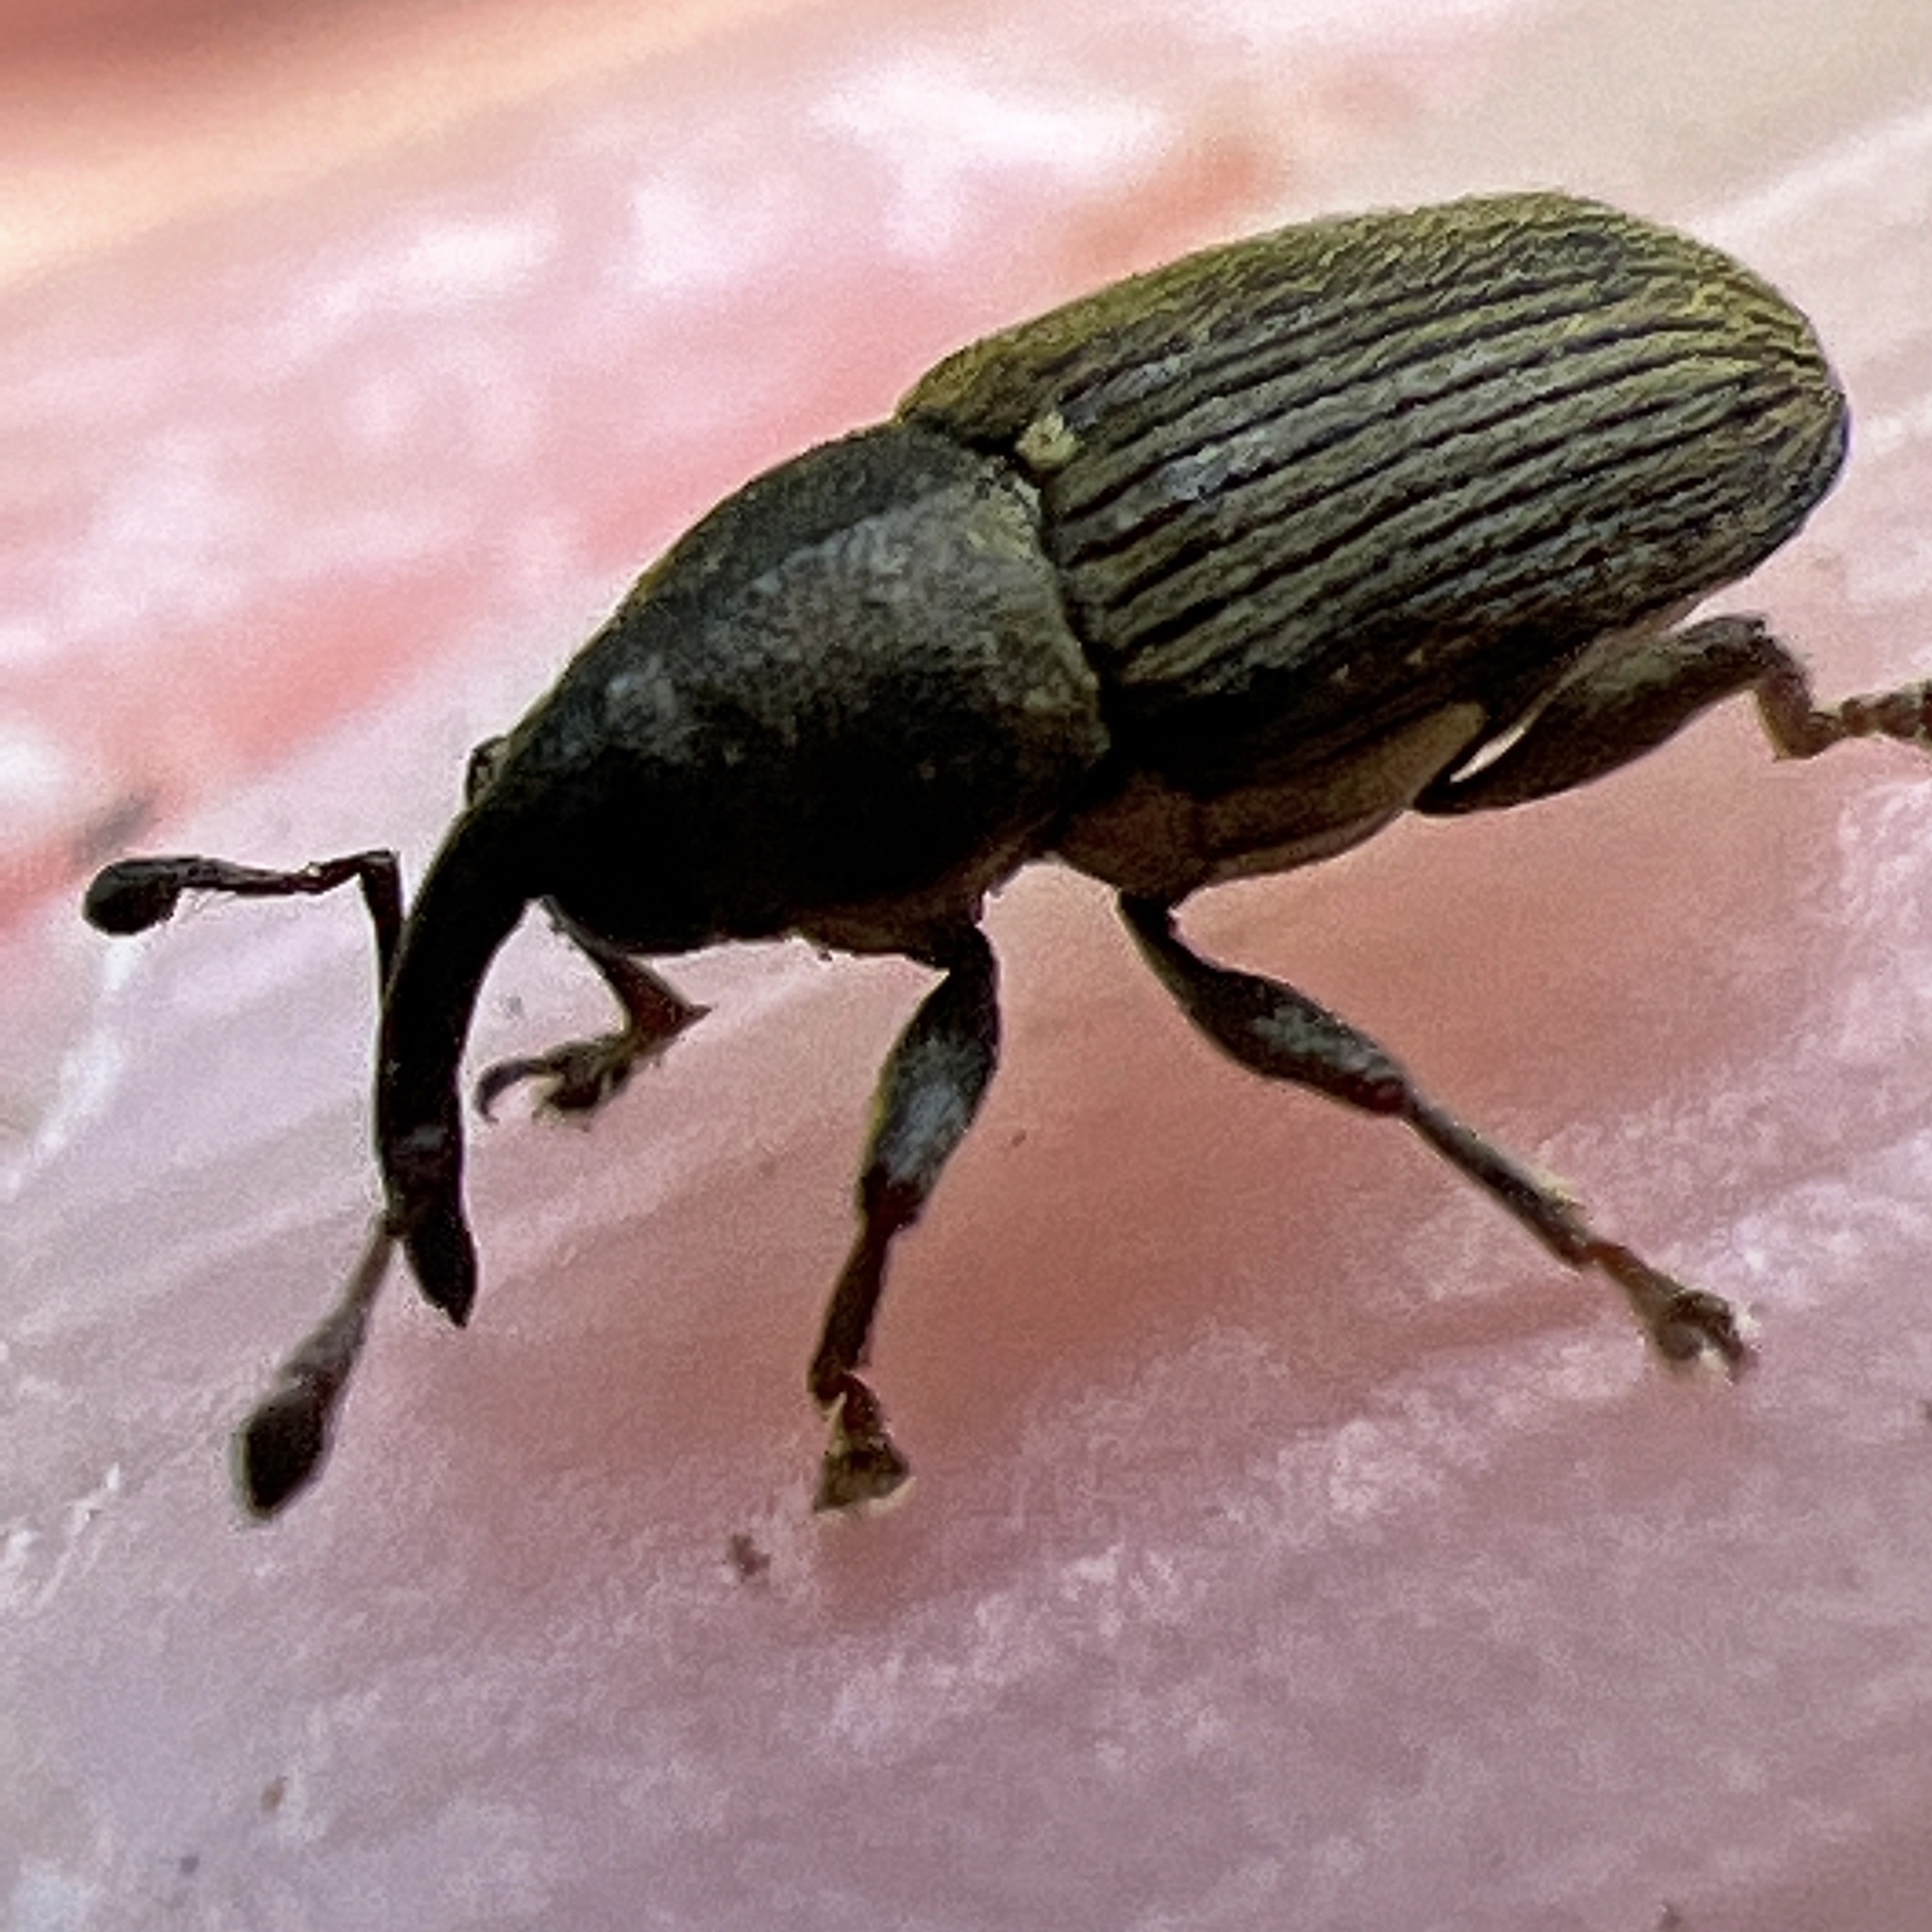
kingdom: Animalia
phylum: Arthropoda
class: Insecta
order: Coleoptera
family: Curculionidae
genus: Odontocorynus
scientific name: Odontocorynus umbellae
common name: Daisy flower weevil
